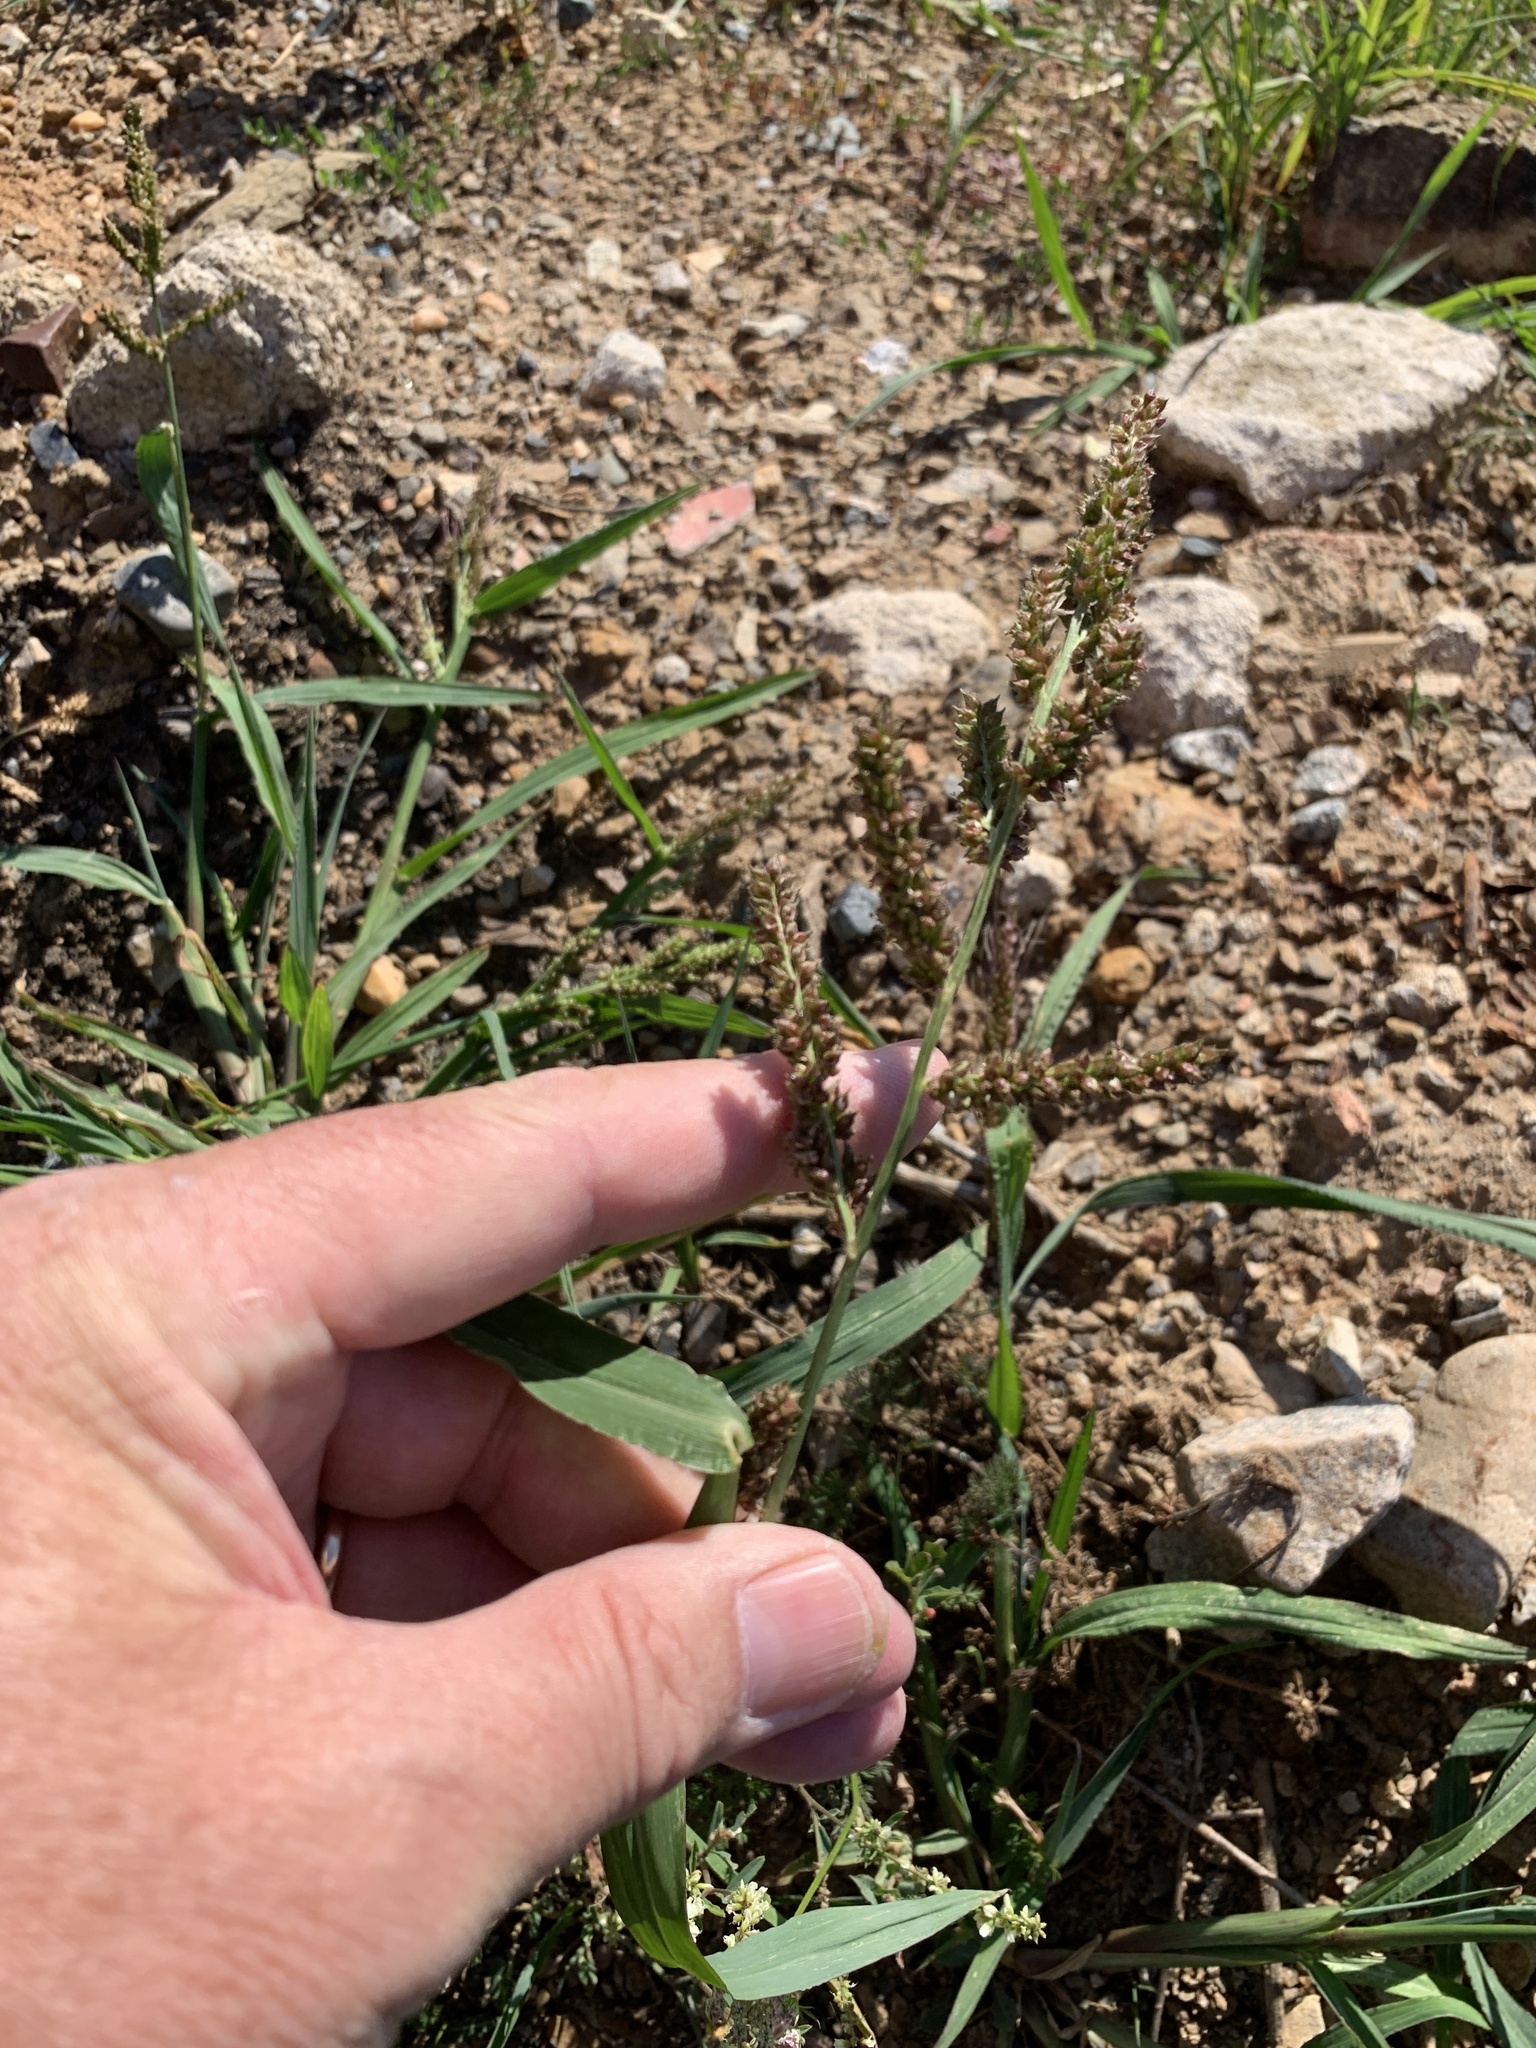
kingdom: Plantae
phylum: Tracheophyta
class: Liliopsida
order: Poales
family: Poaceae
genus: Echinochloa
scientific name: Echinochloa crus-galli
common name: Cockspur
